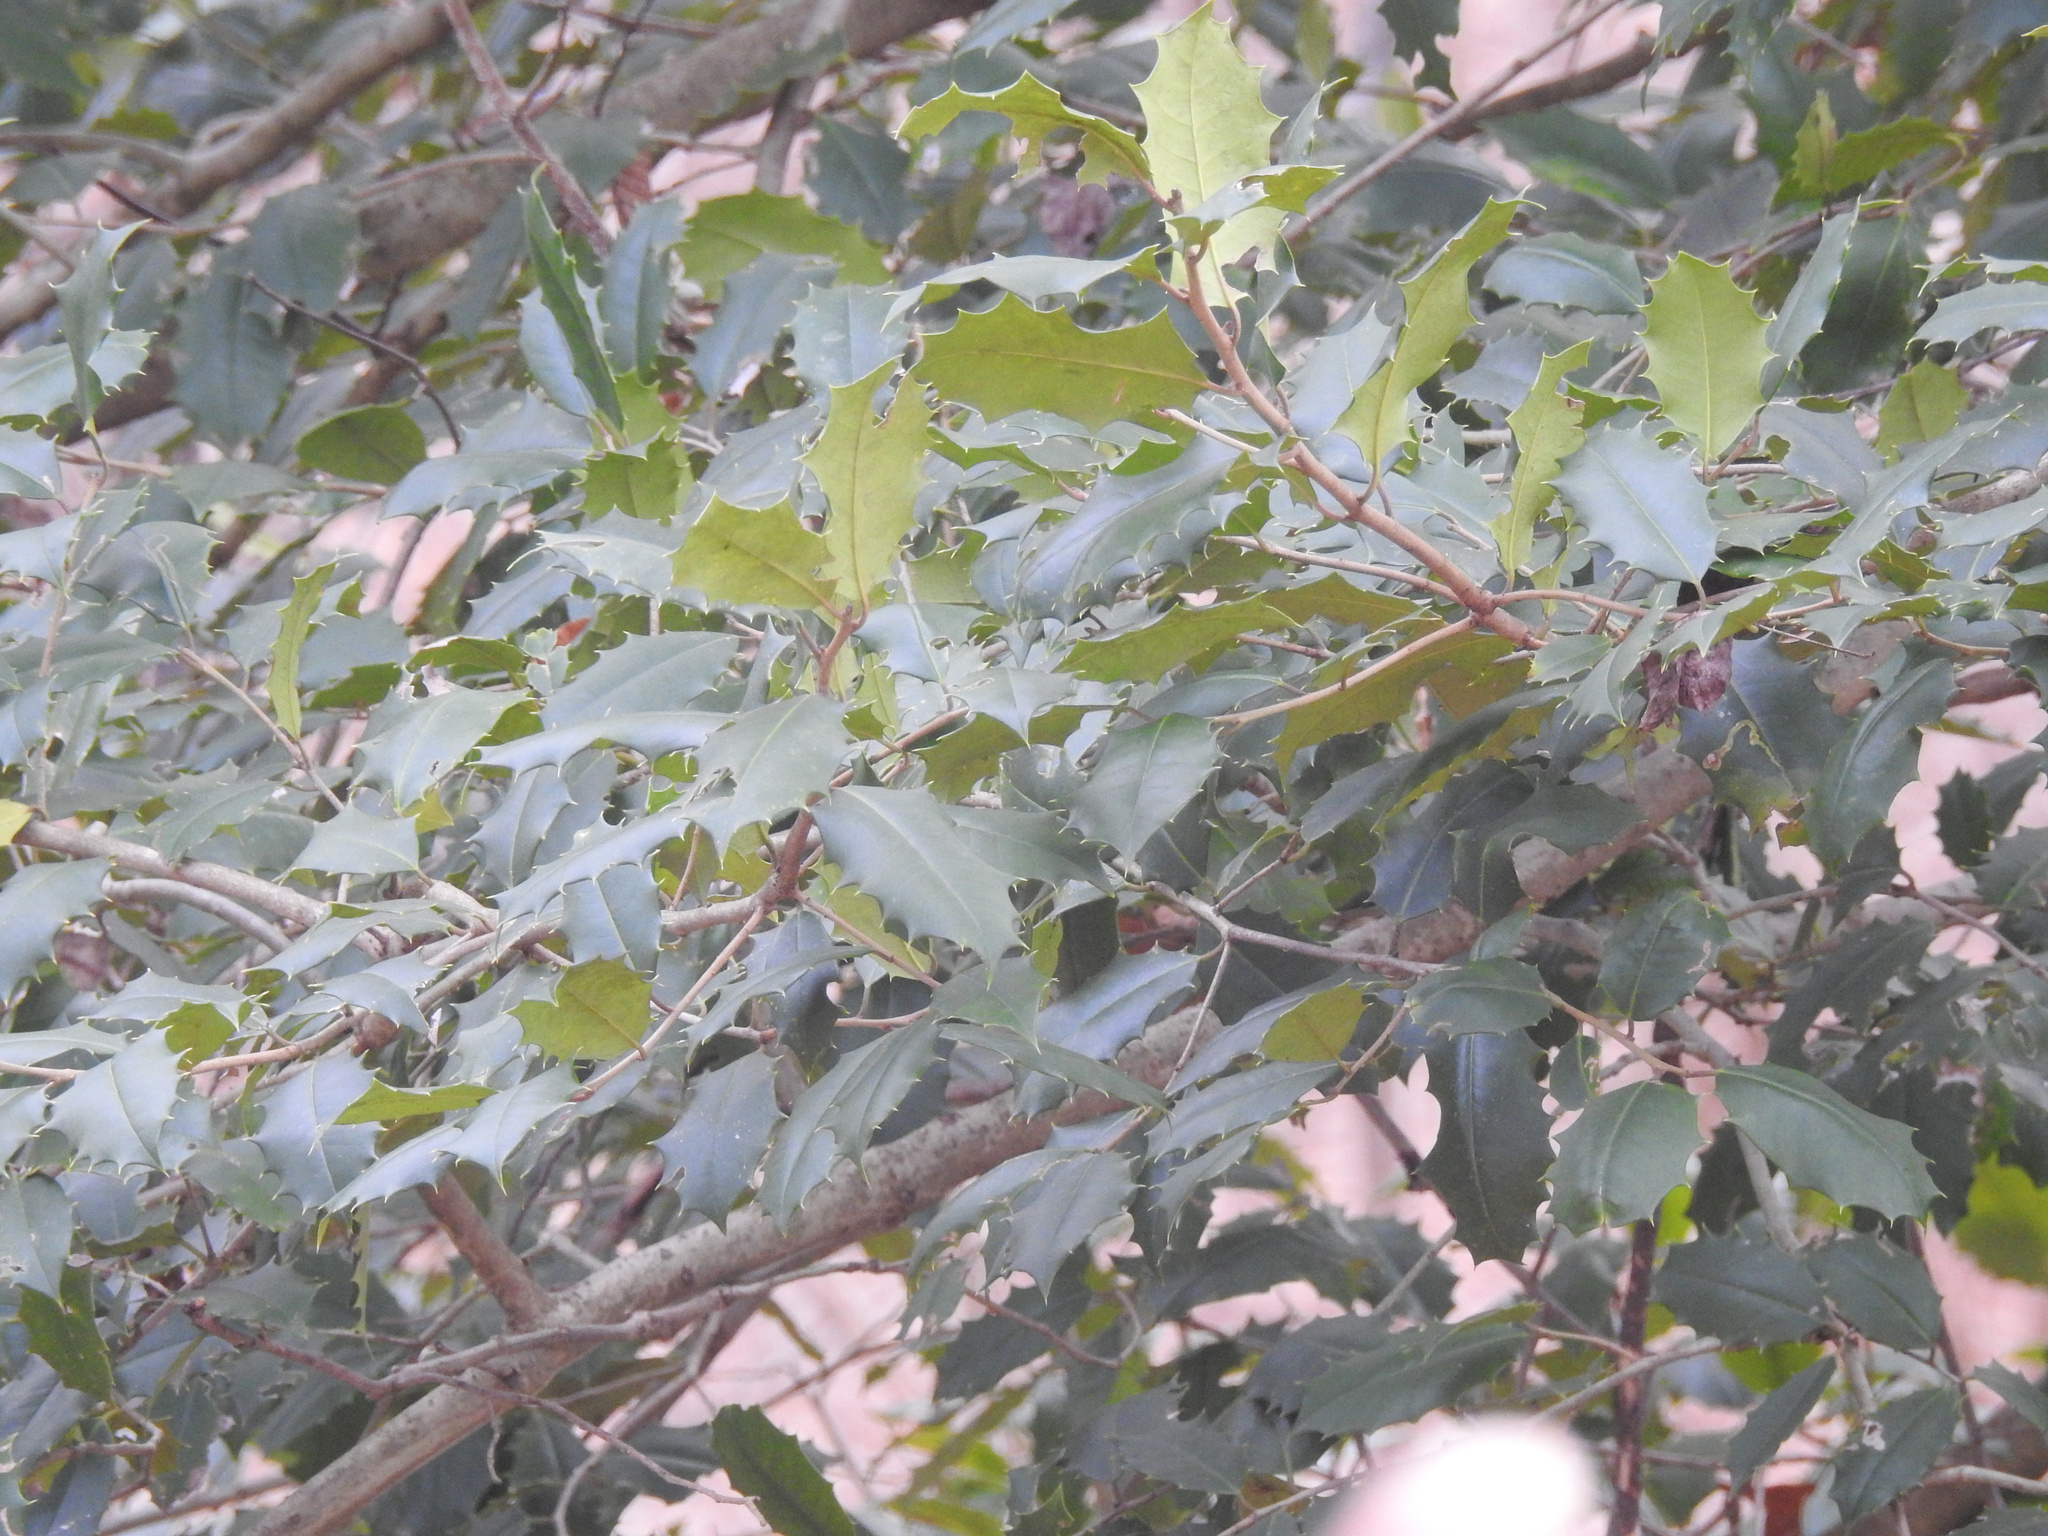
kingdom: Plantae
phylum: Tracheophyta
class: Magnoliopsida
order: Aquifoliales
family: Aquifoliaceae
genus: Ilex
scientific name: Ilex opaca
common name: American holly
